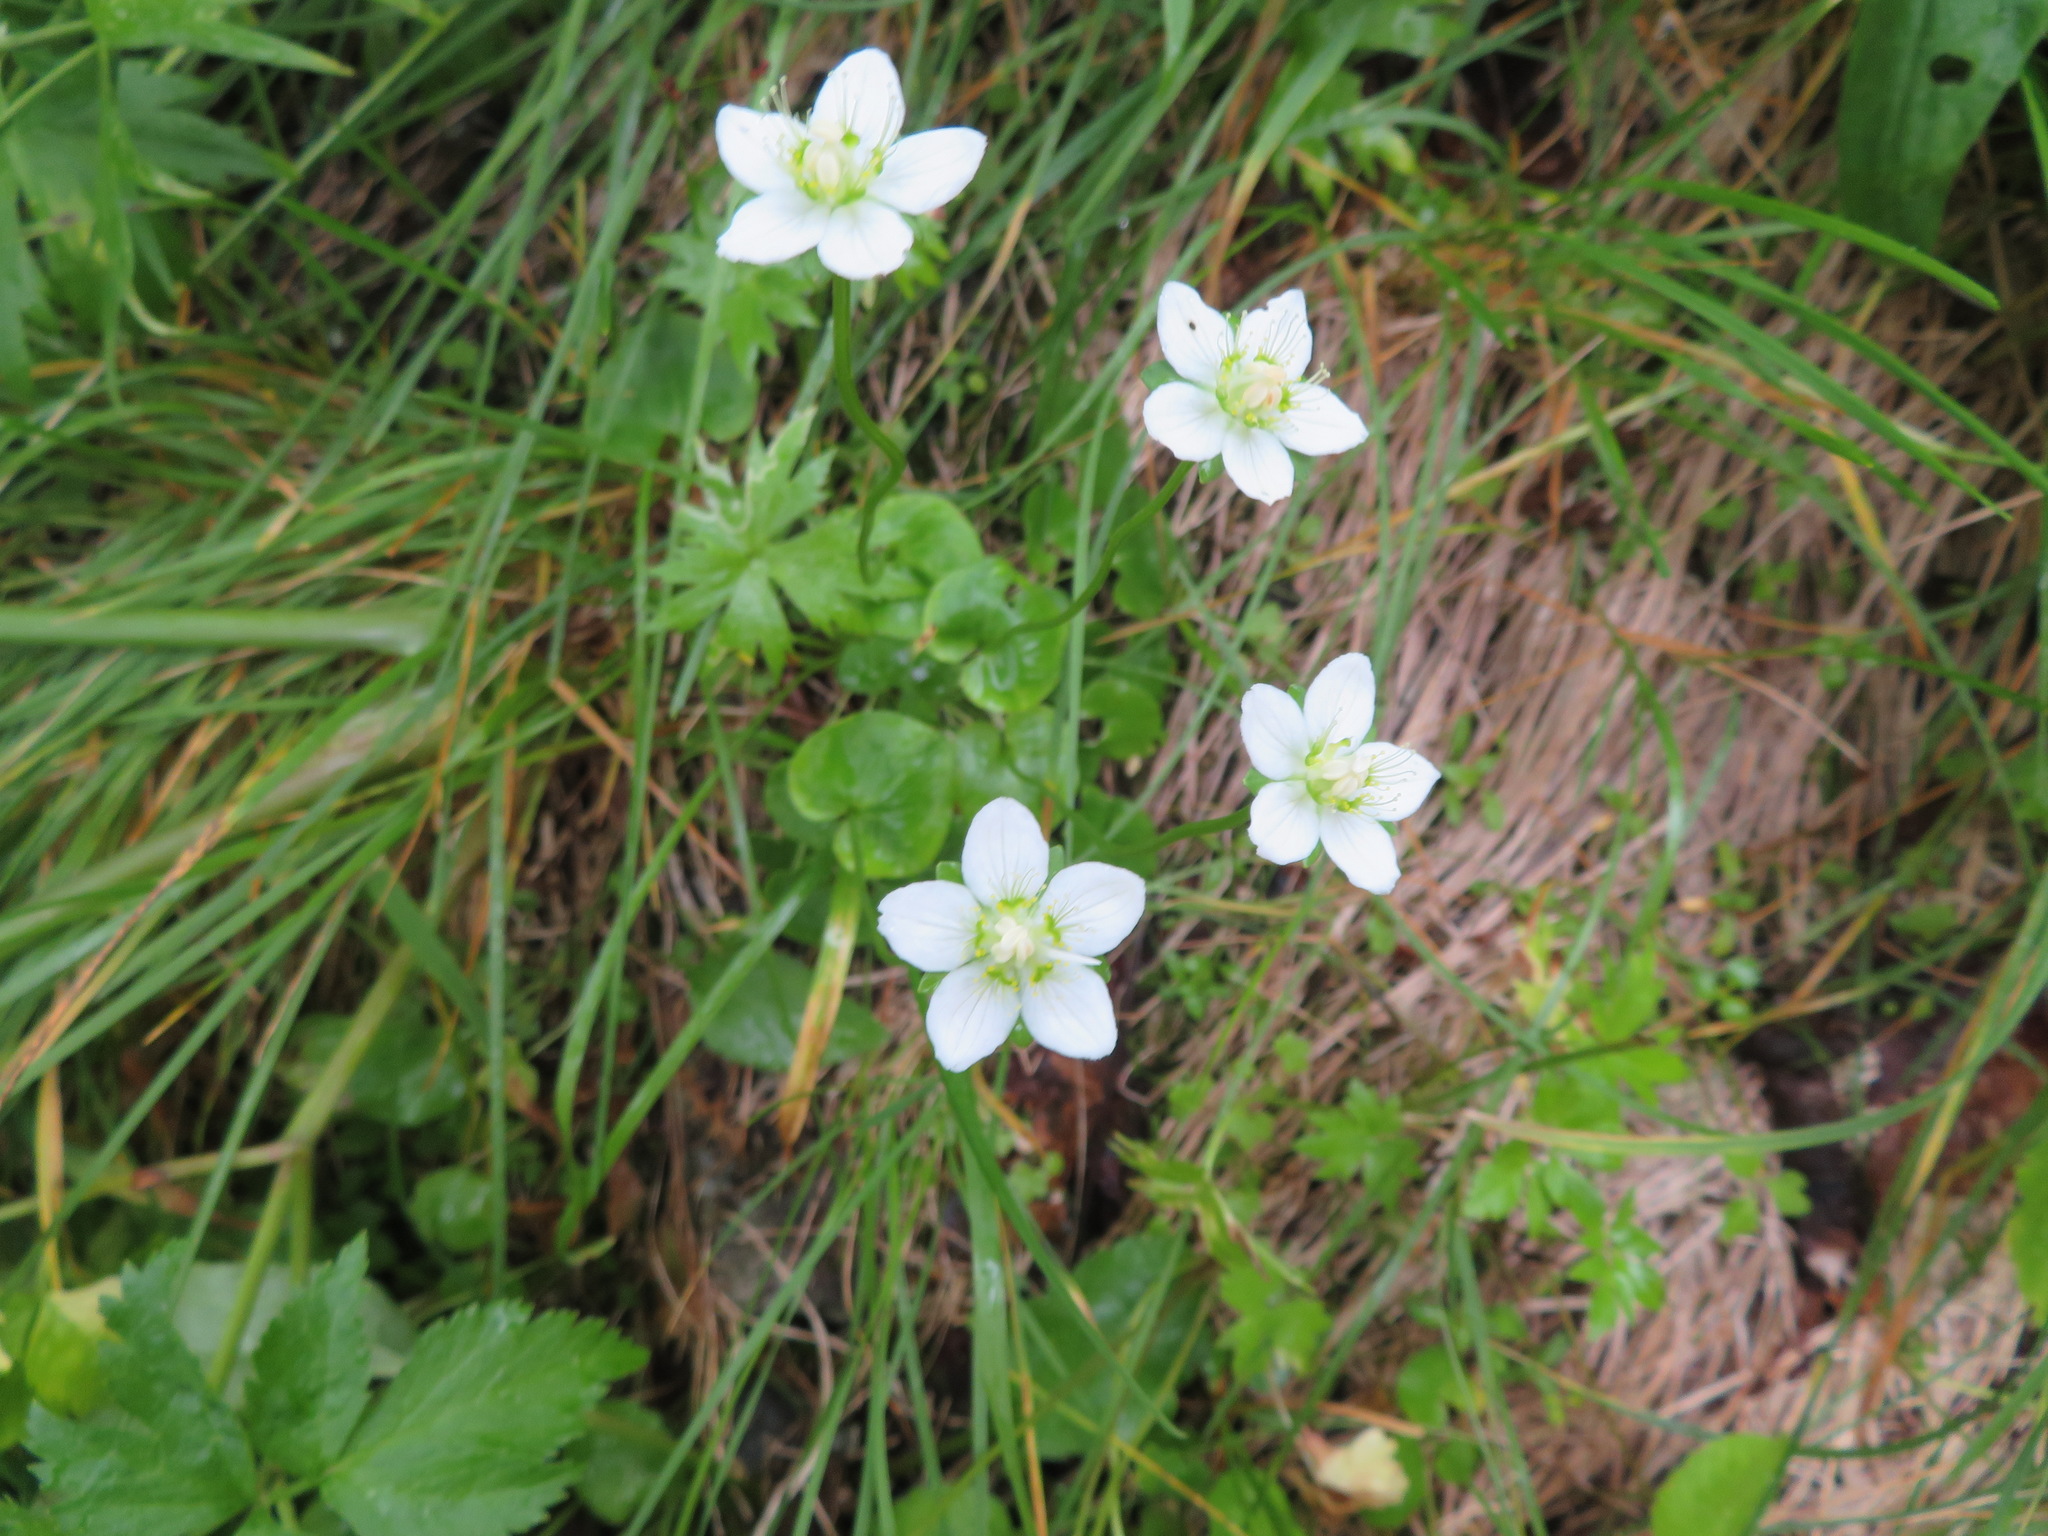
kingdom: Plantae
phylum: Tracheophyta
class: Magnoliopsida
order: Celastrales
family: Parnassiaceae
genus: Parnassia
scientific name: Parnassia palustris
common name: Grass-of-parnassus
